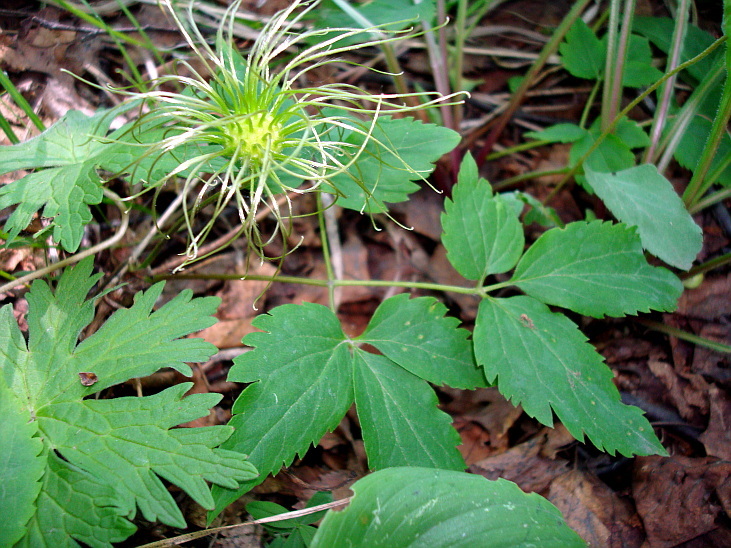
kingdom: Plantae
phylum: Tracheophyta
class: Magnoliopsida
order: Ranunculales
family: Ranunculaceae
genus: Clematis
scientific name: Clematis ochotensis
